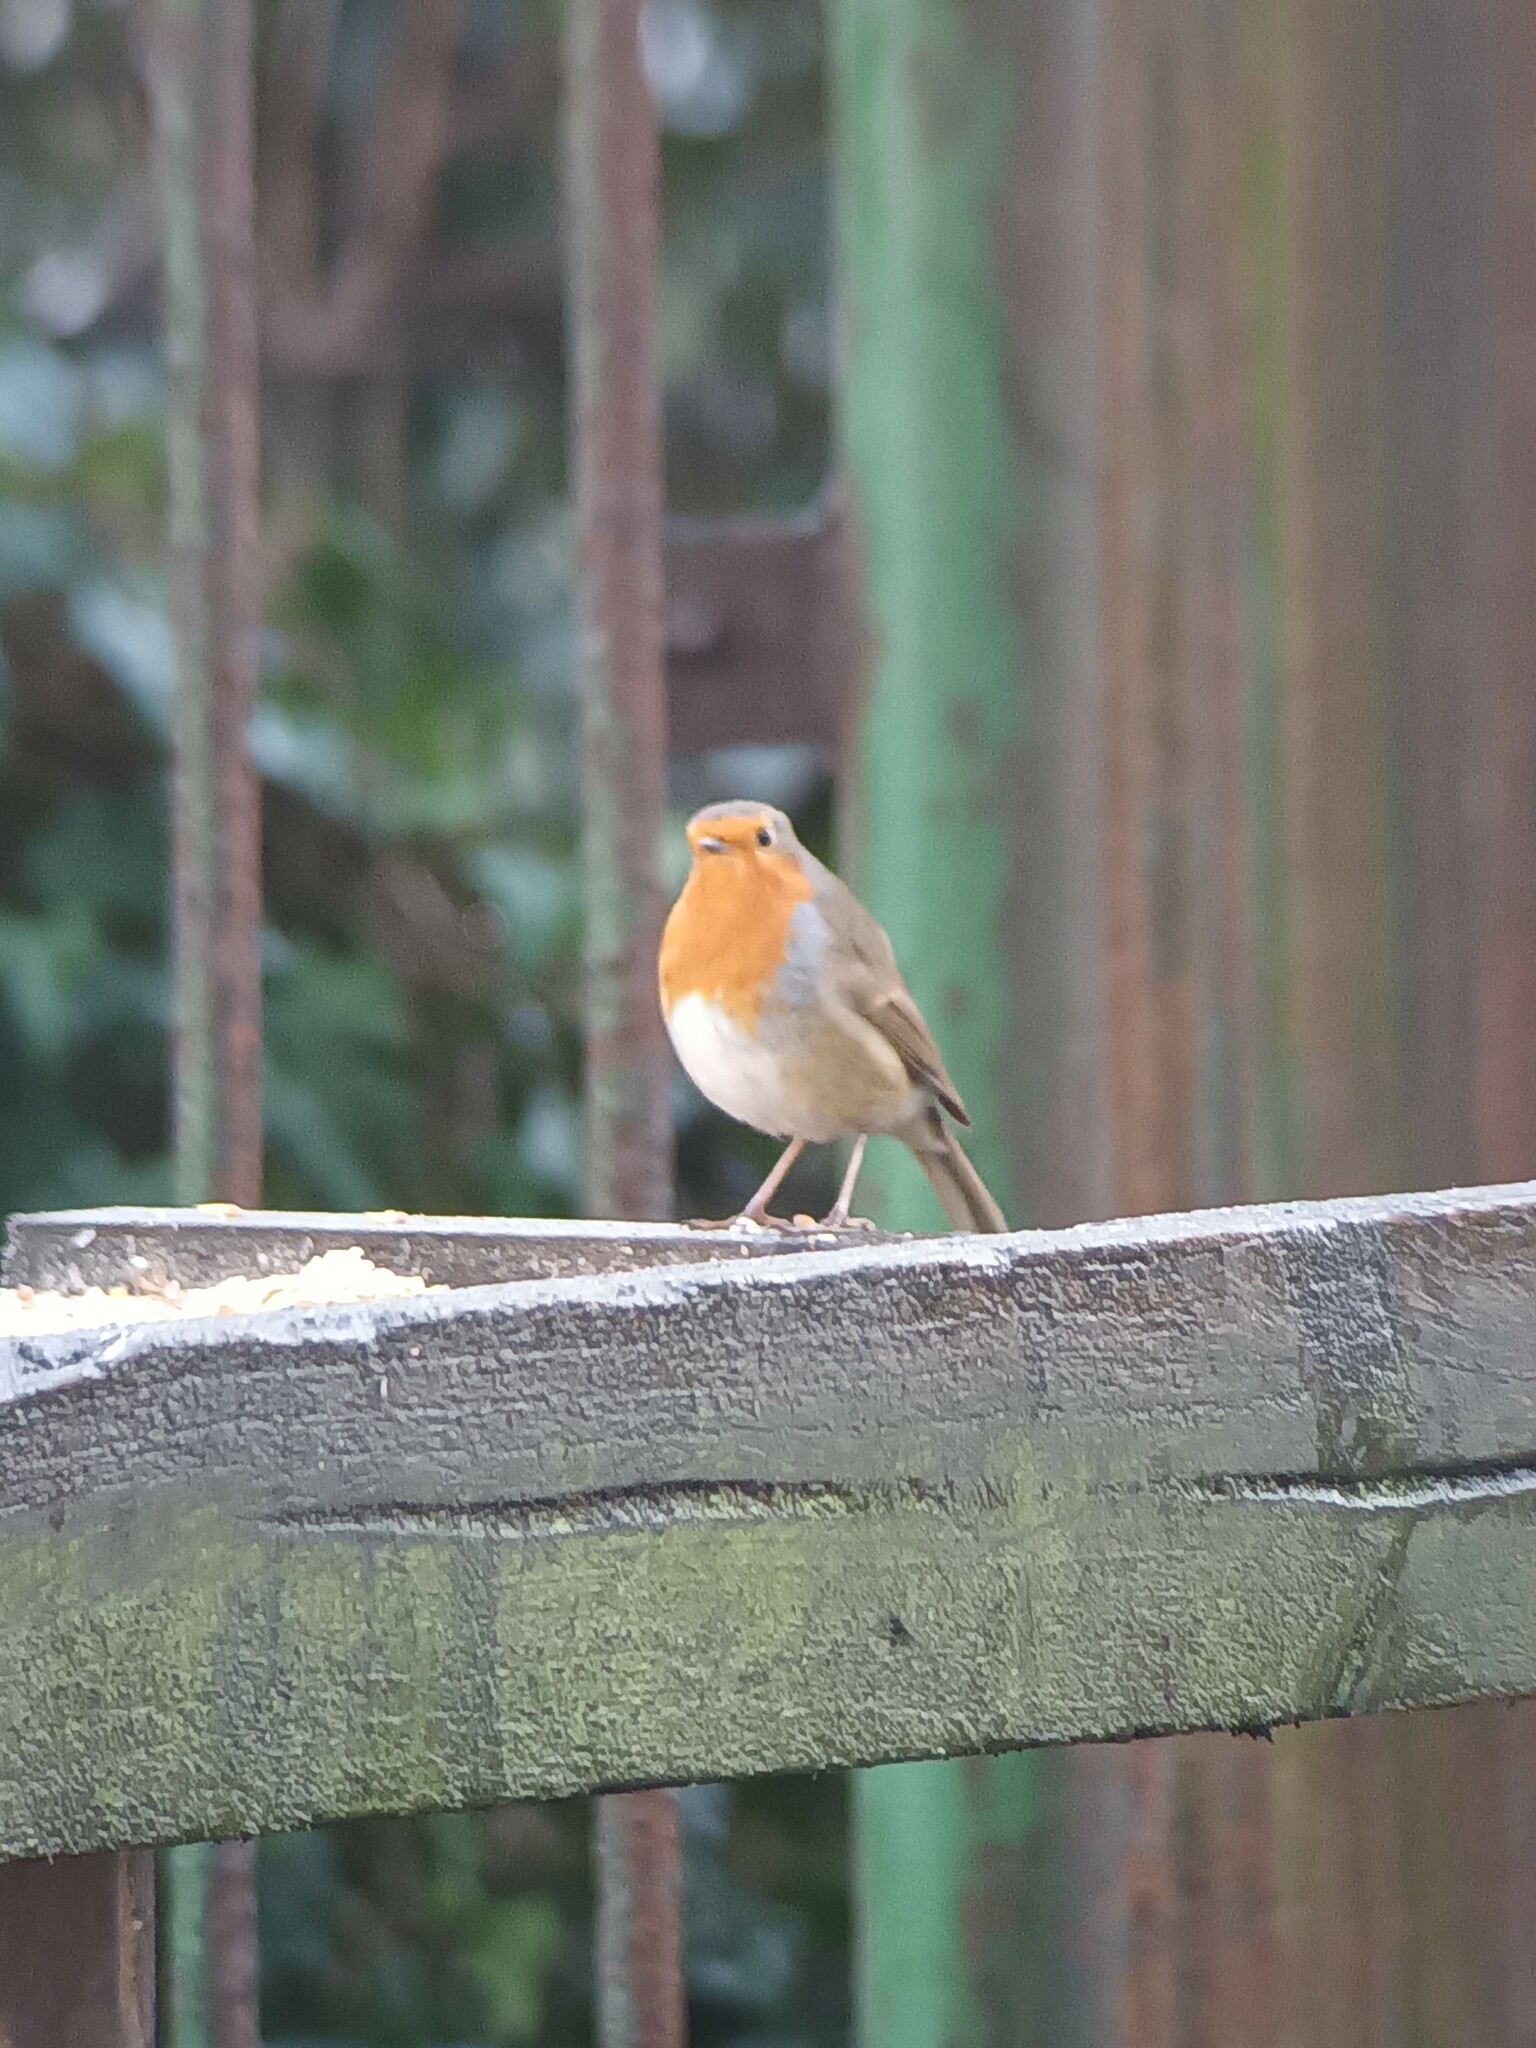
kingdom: Animalia
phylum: Chordata
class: Aves
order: Passeriformes
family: Muscicapidae
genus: Erithacus
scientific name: Erithacus rubecula
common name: European robin
